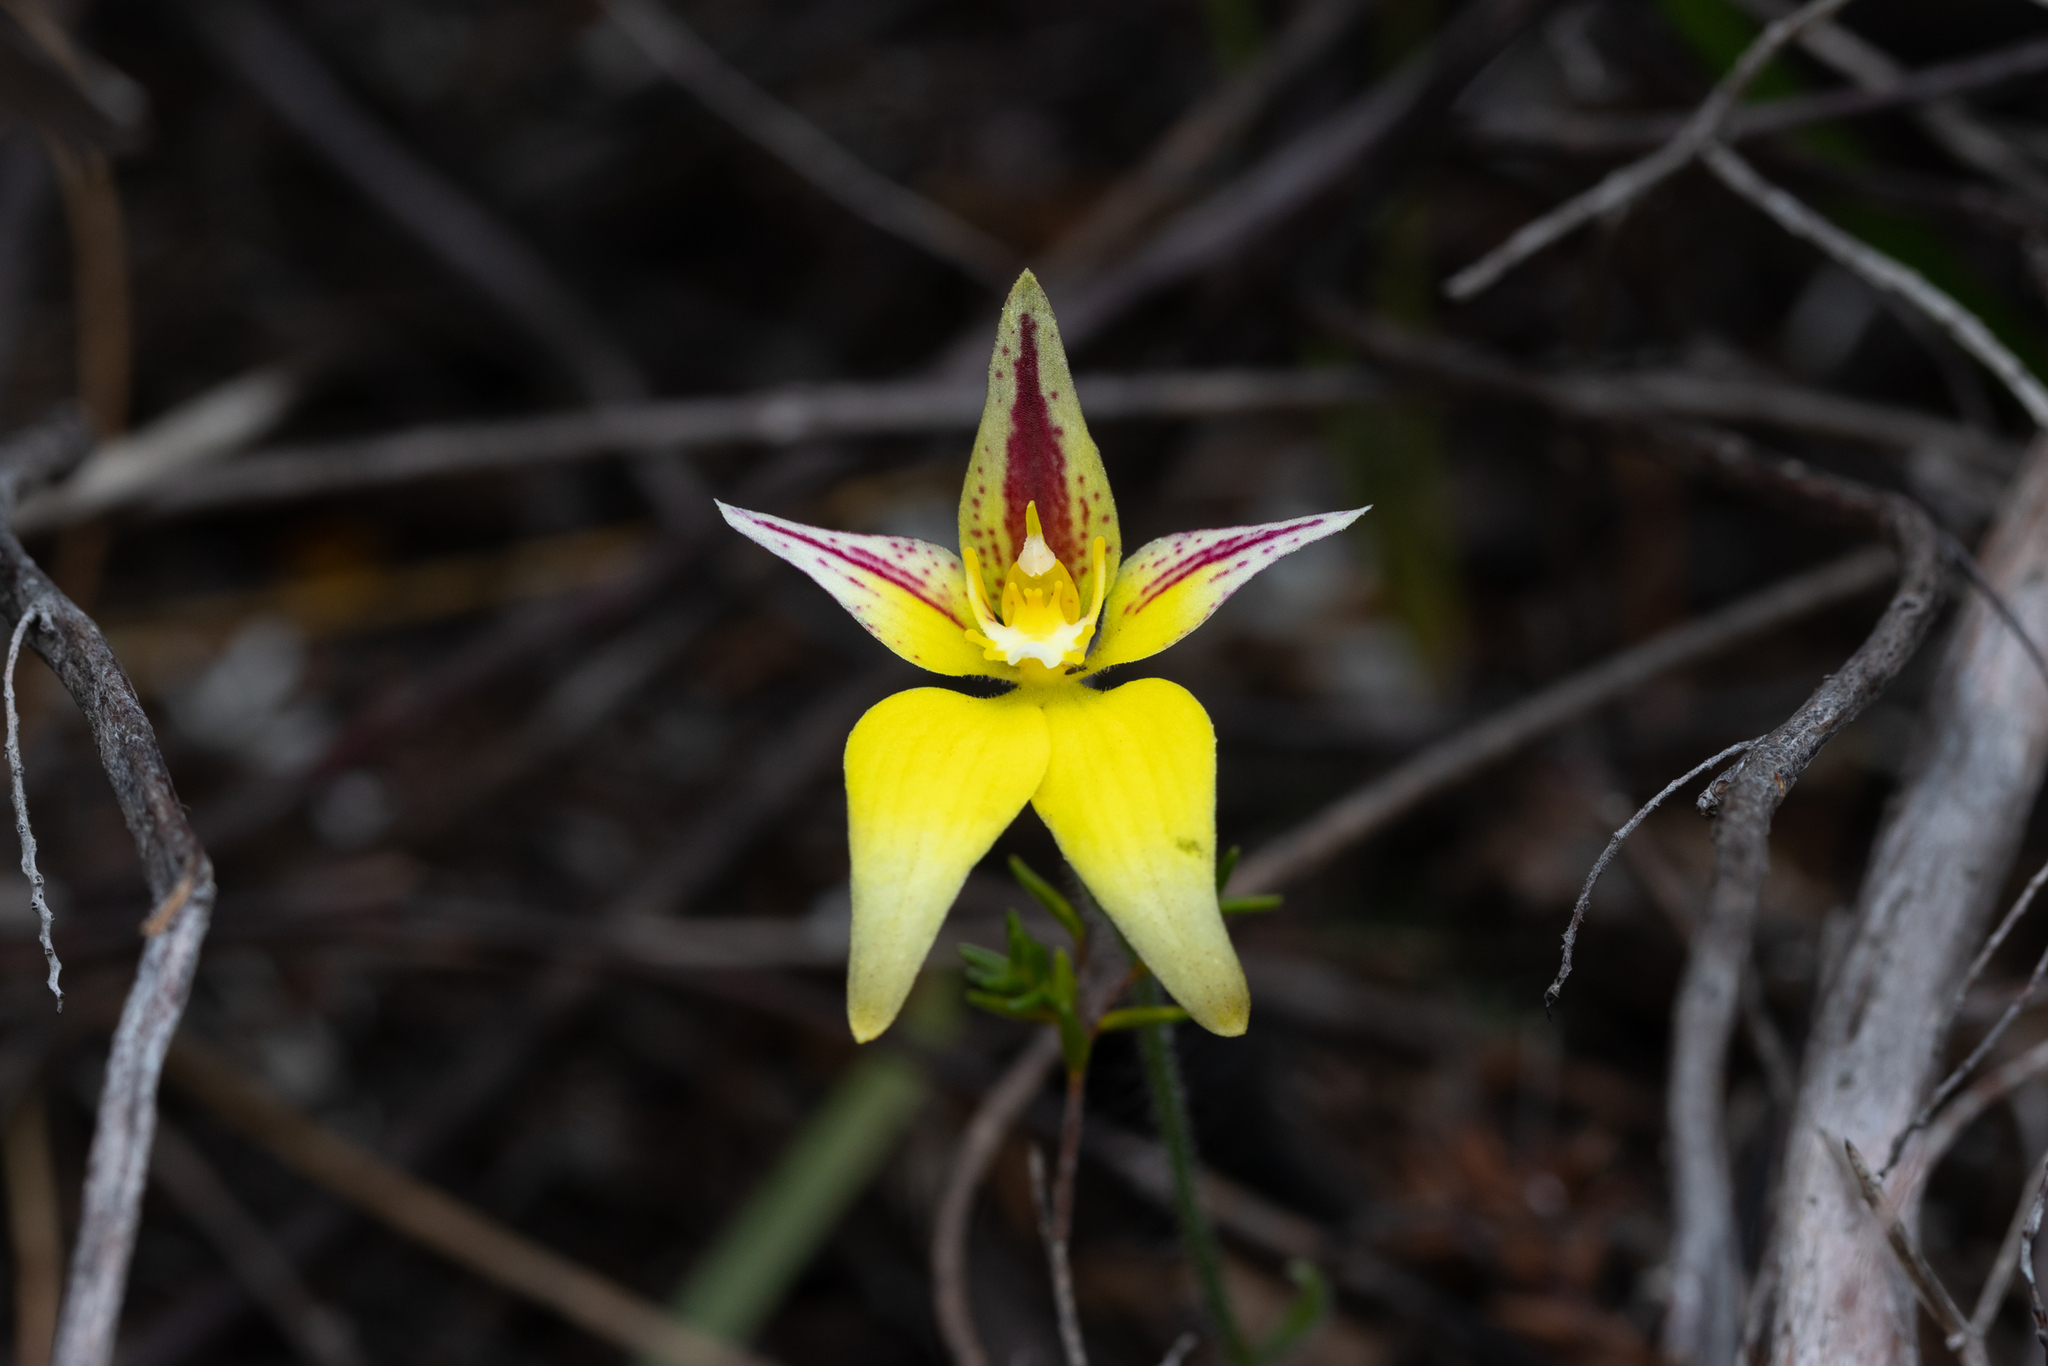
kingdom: Plantae
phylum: Tracheophyta
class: Liliopsida
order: Asparagales
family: Orchidaceae
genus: Caladenia
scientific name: Caladenia flava
